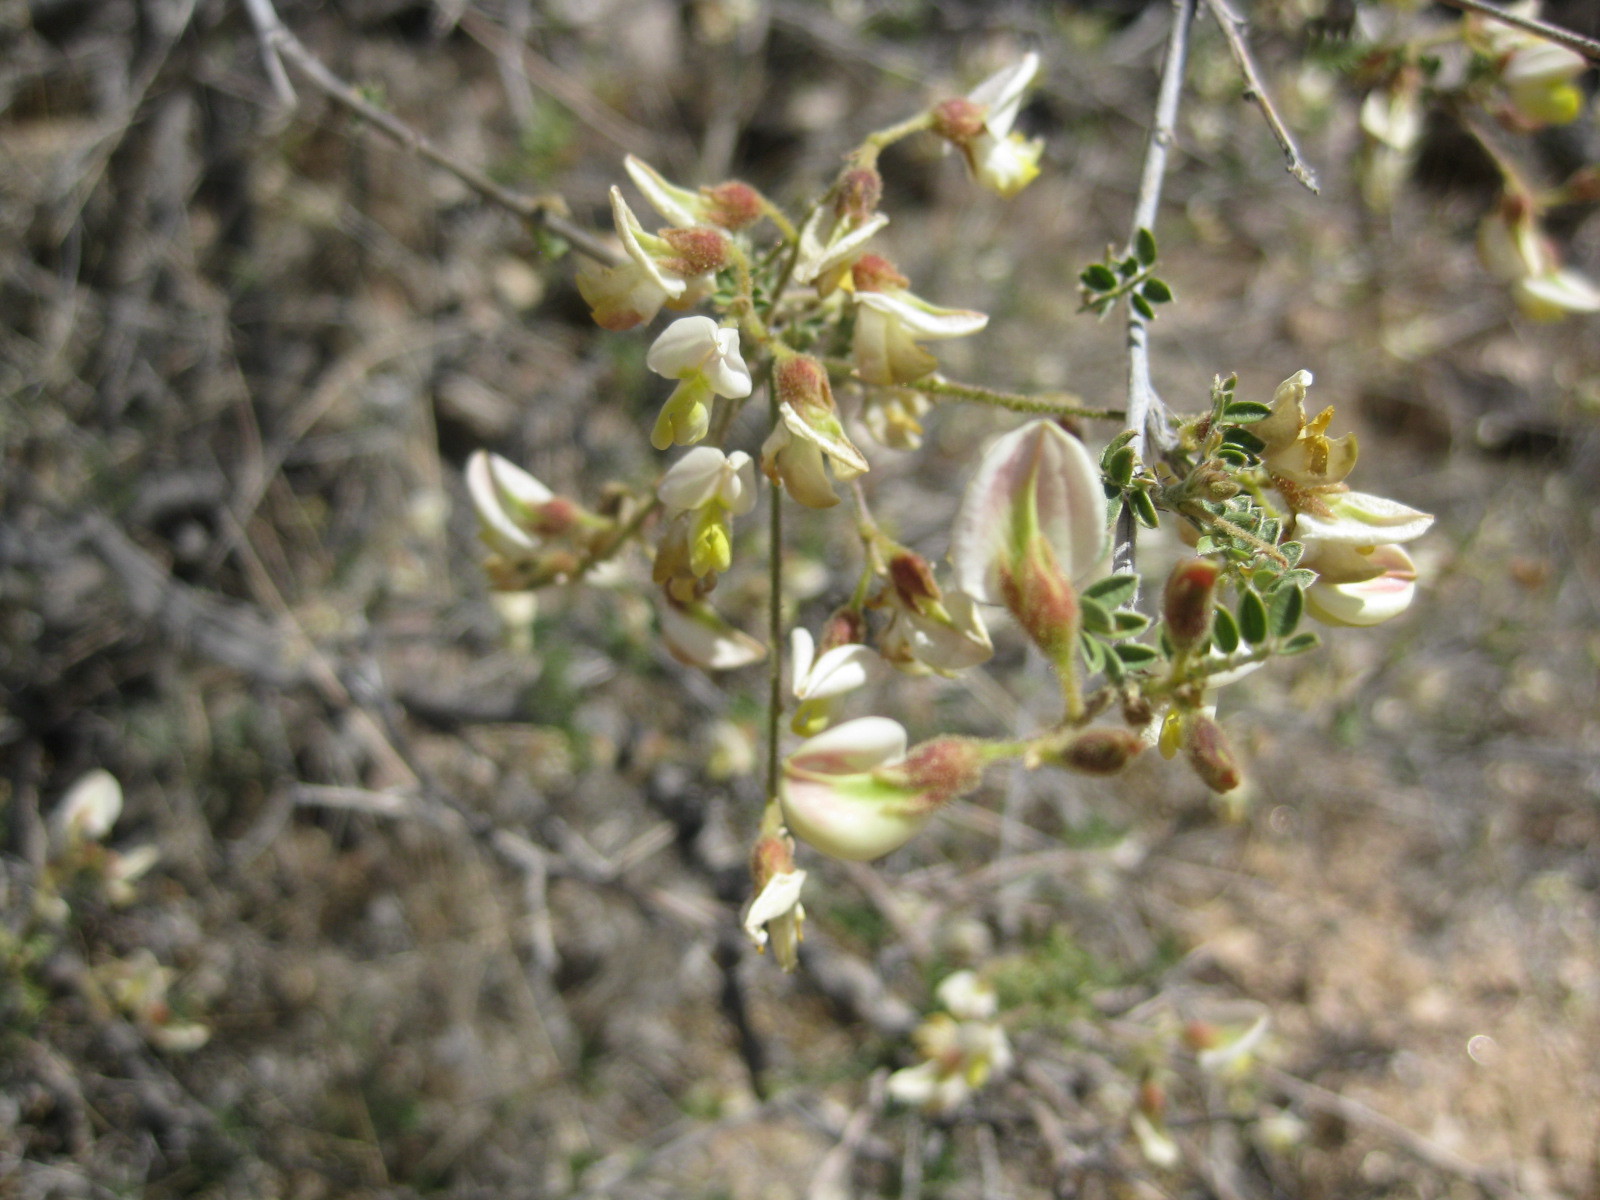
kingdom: Plantae
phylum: Tracheophyta
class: Magnoliopsida
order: Fabales
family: Fabaceae
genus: Coursetia
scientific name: Coursetia glandulosa
